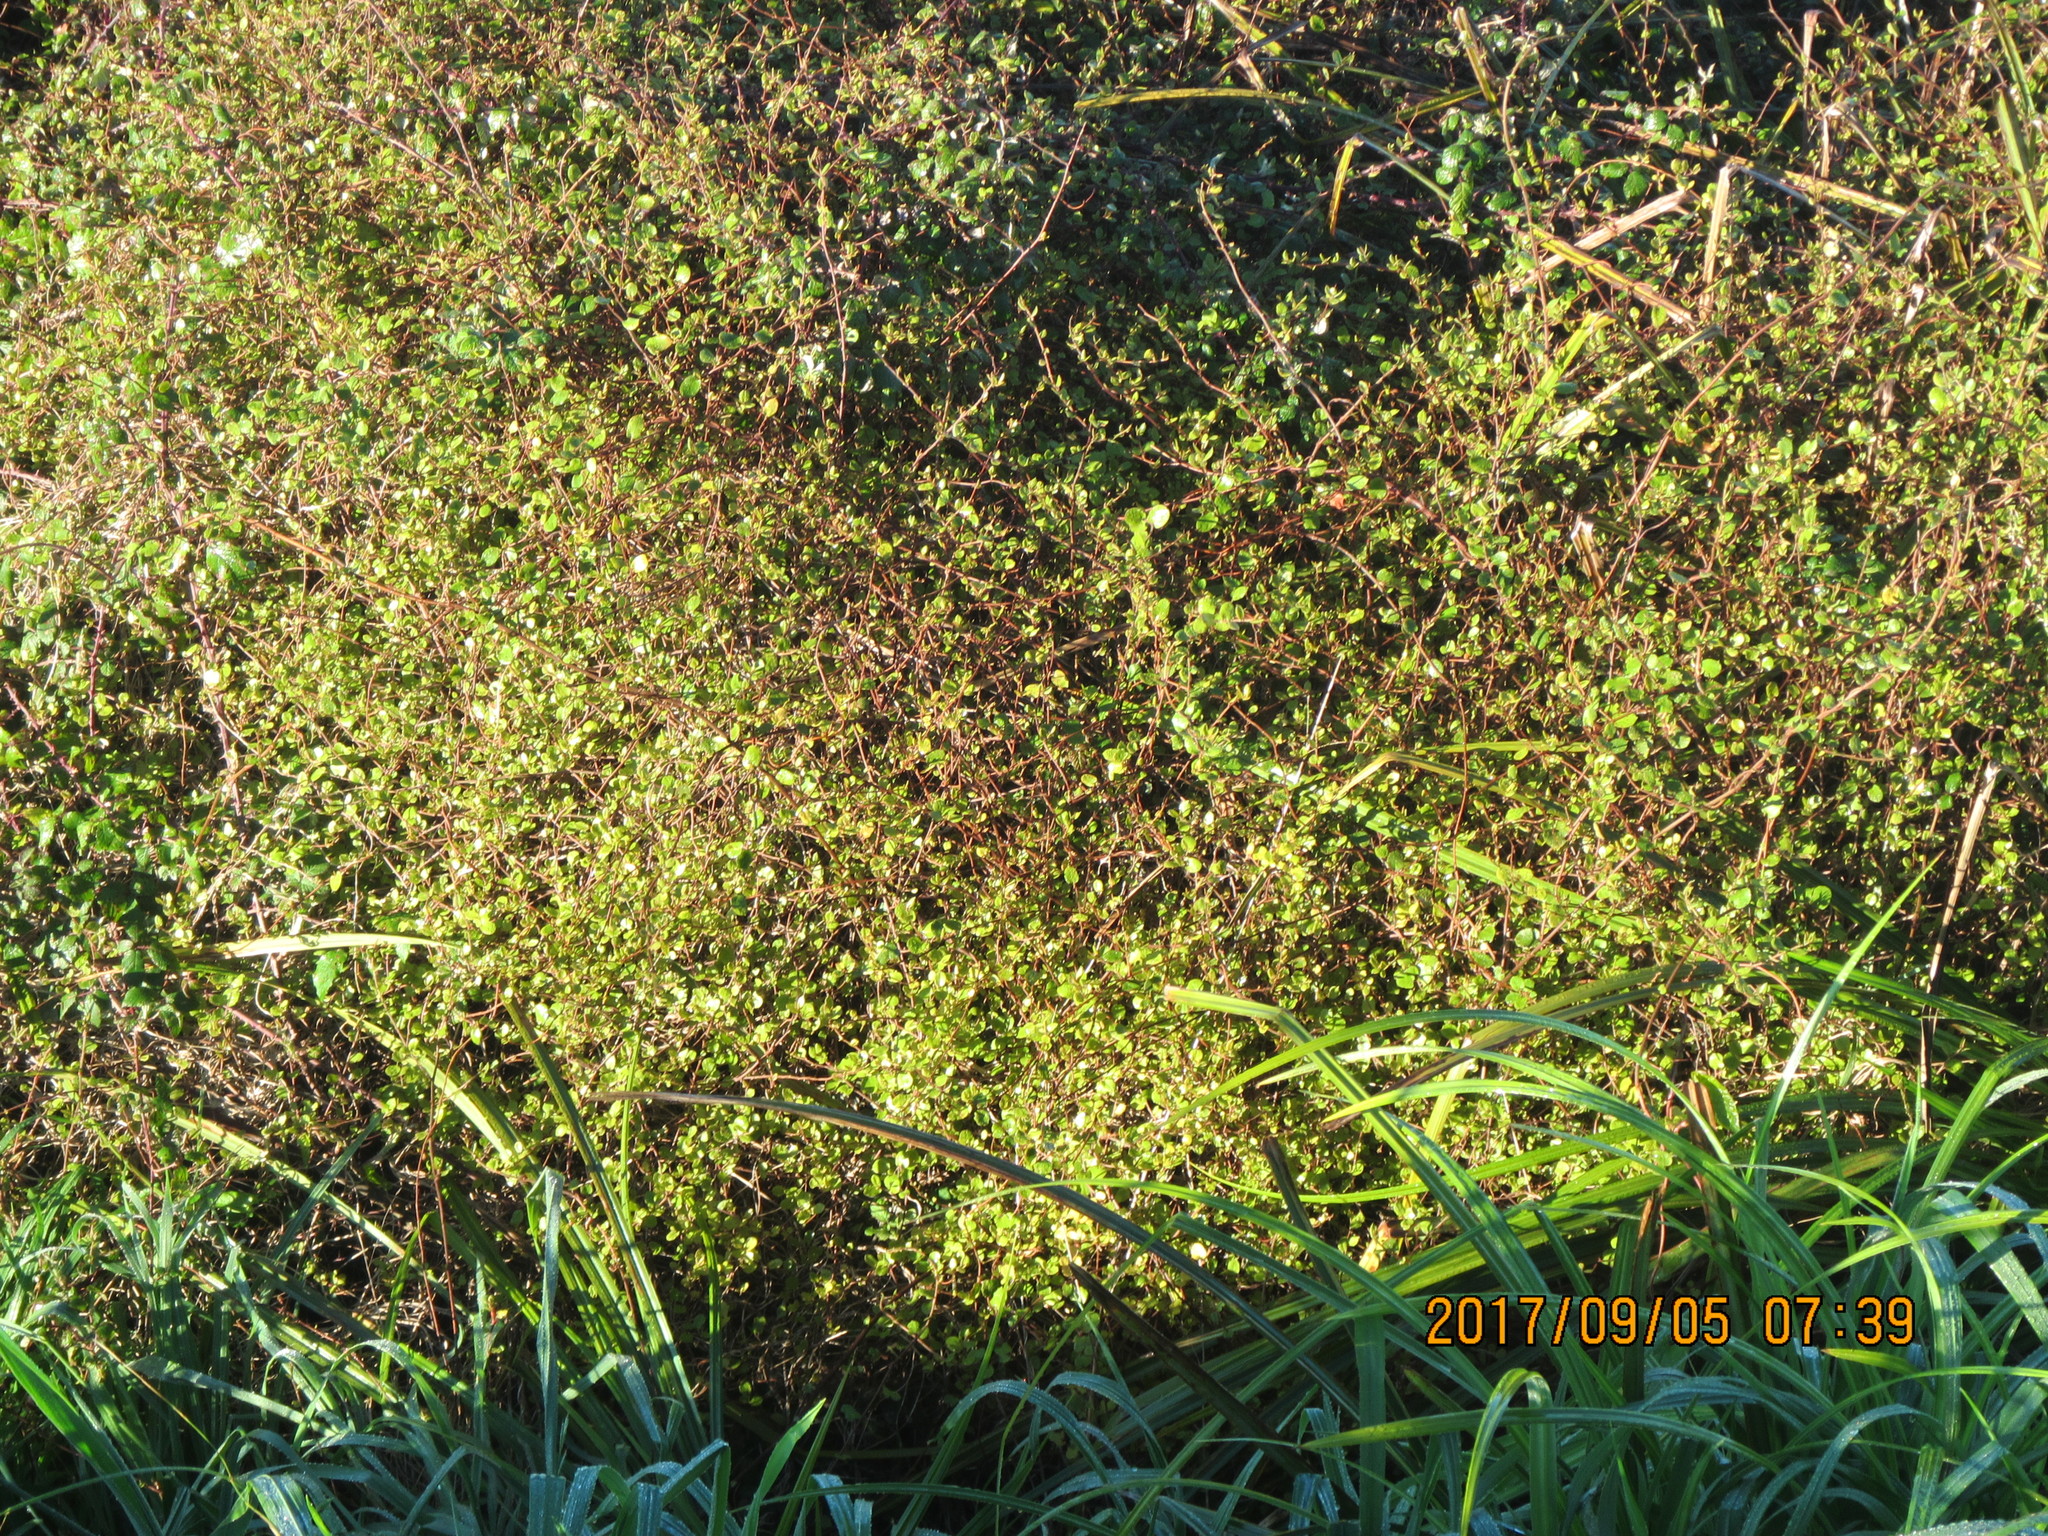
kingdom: Plantae
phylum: Tracheophyta
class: Magnoliopsida
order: Caryophyllales
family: Polygonaceae
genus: Muehlenbeckia
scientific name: Muehlenbeckia complexa
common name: Wireplant
